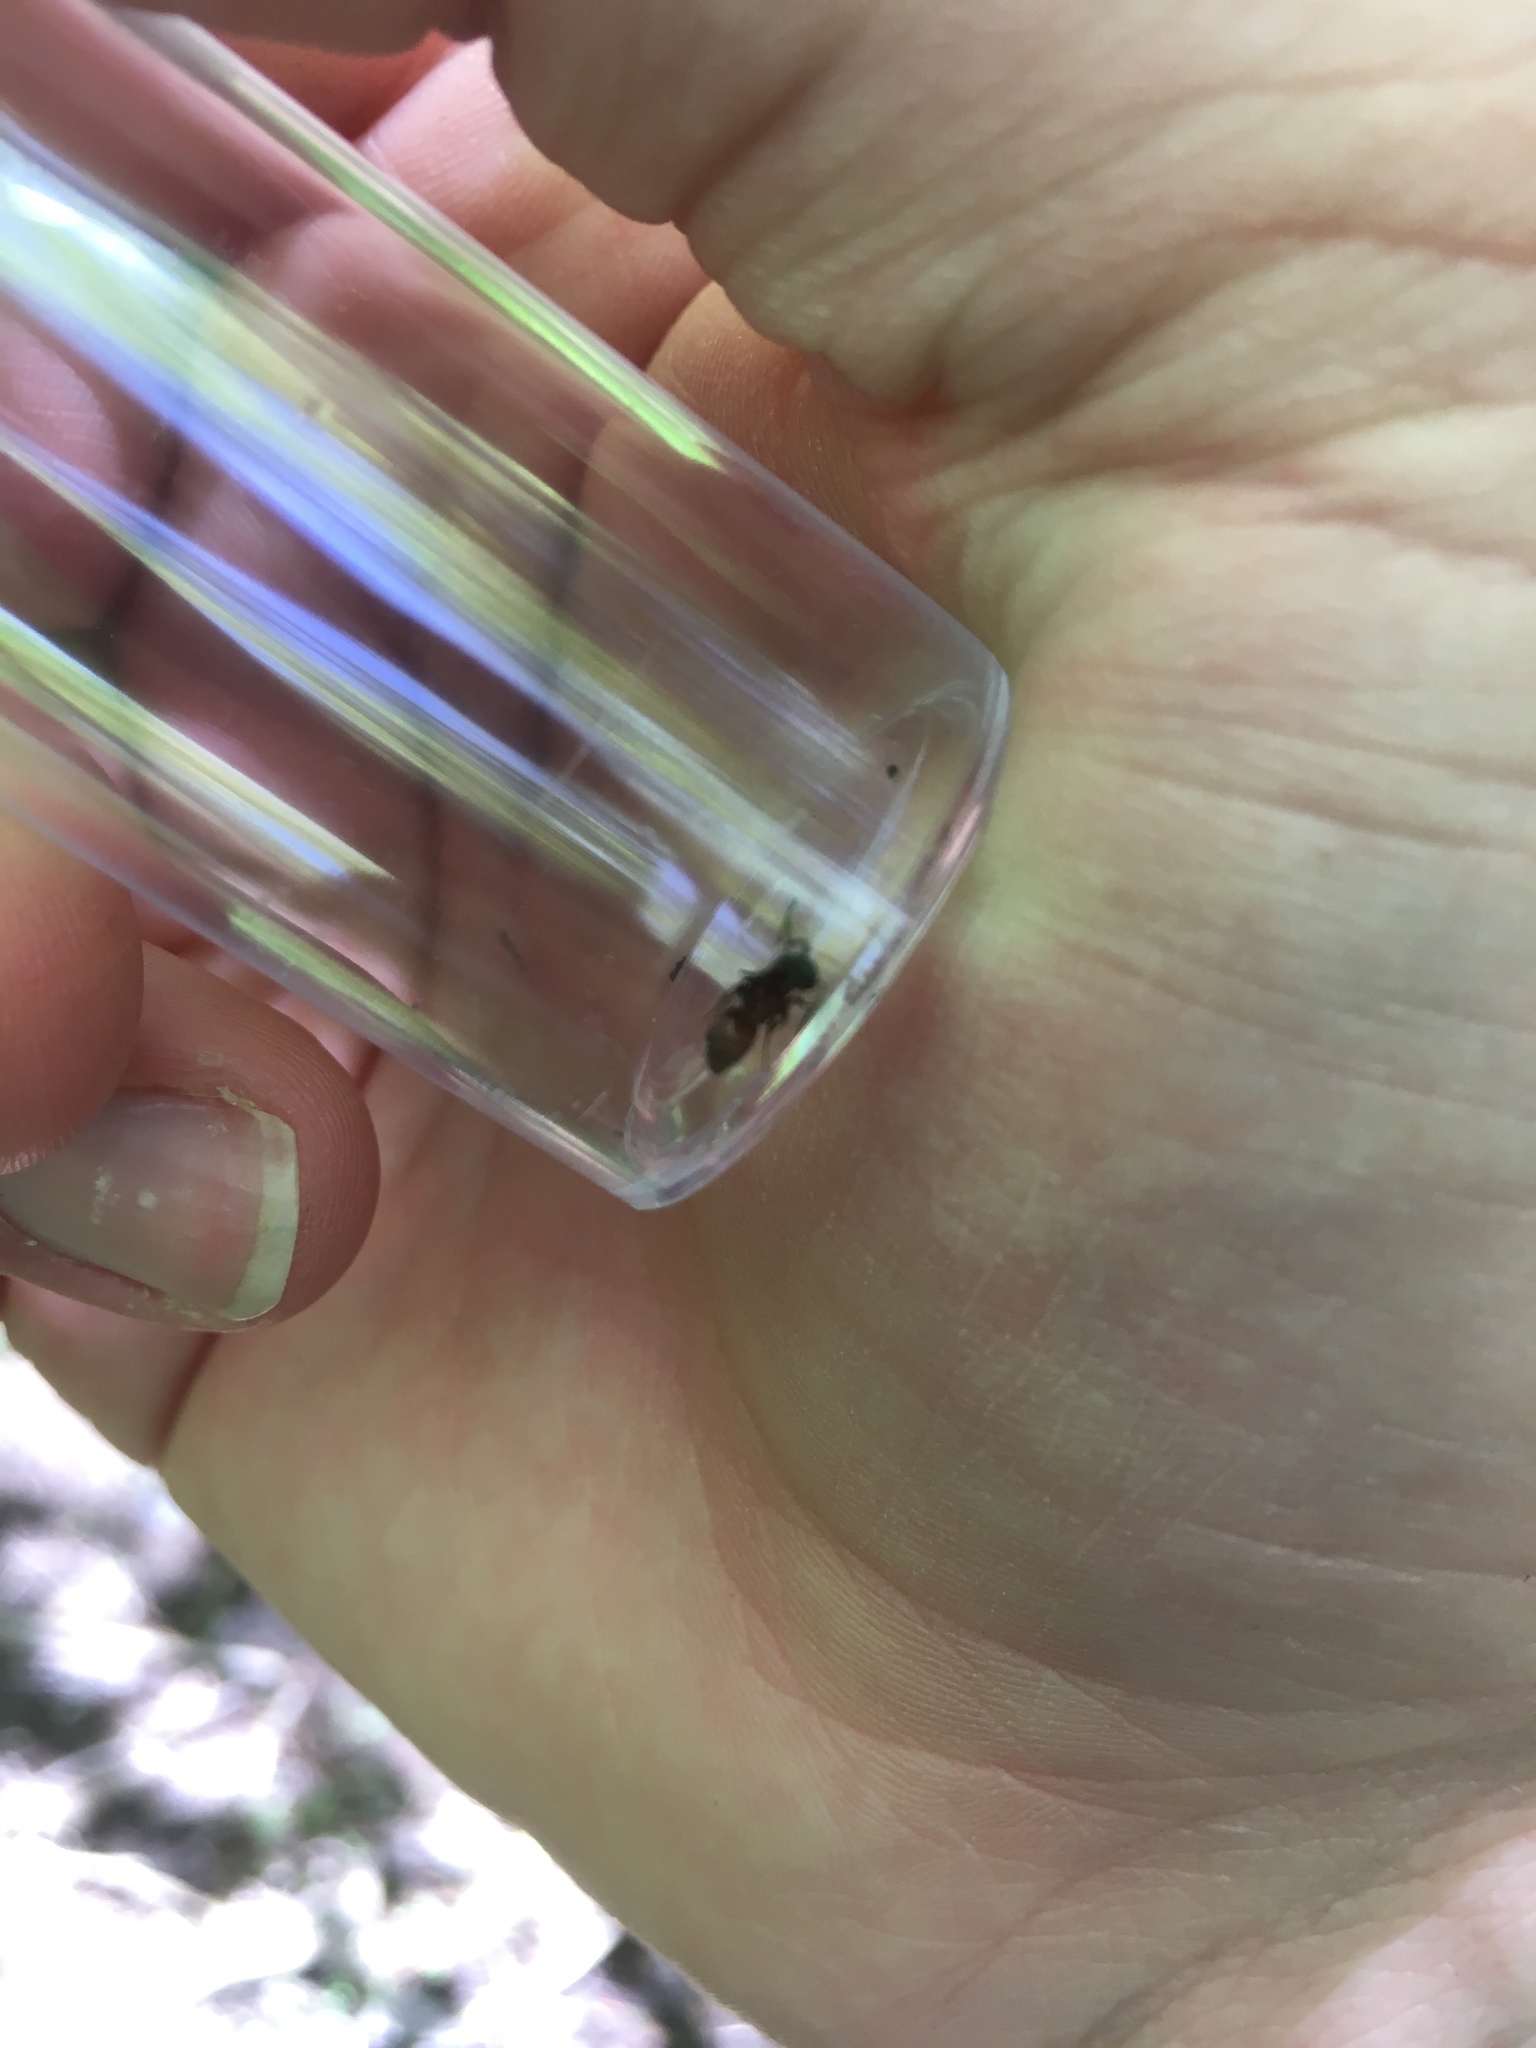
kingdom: Animalia
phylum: Arthropoda
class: Insecta
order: Hymenoptera
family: Mutillidae
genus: Pseudomethoca
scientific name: Pseudomethoca
